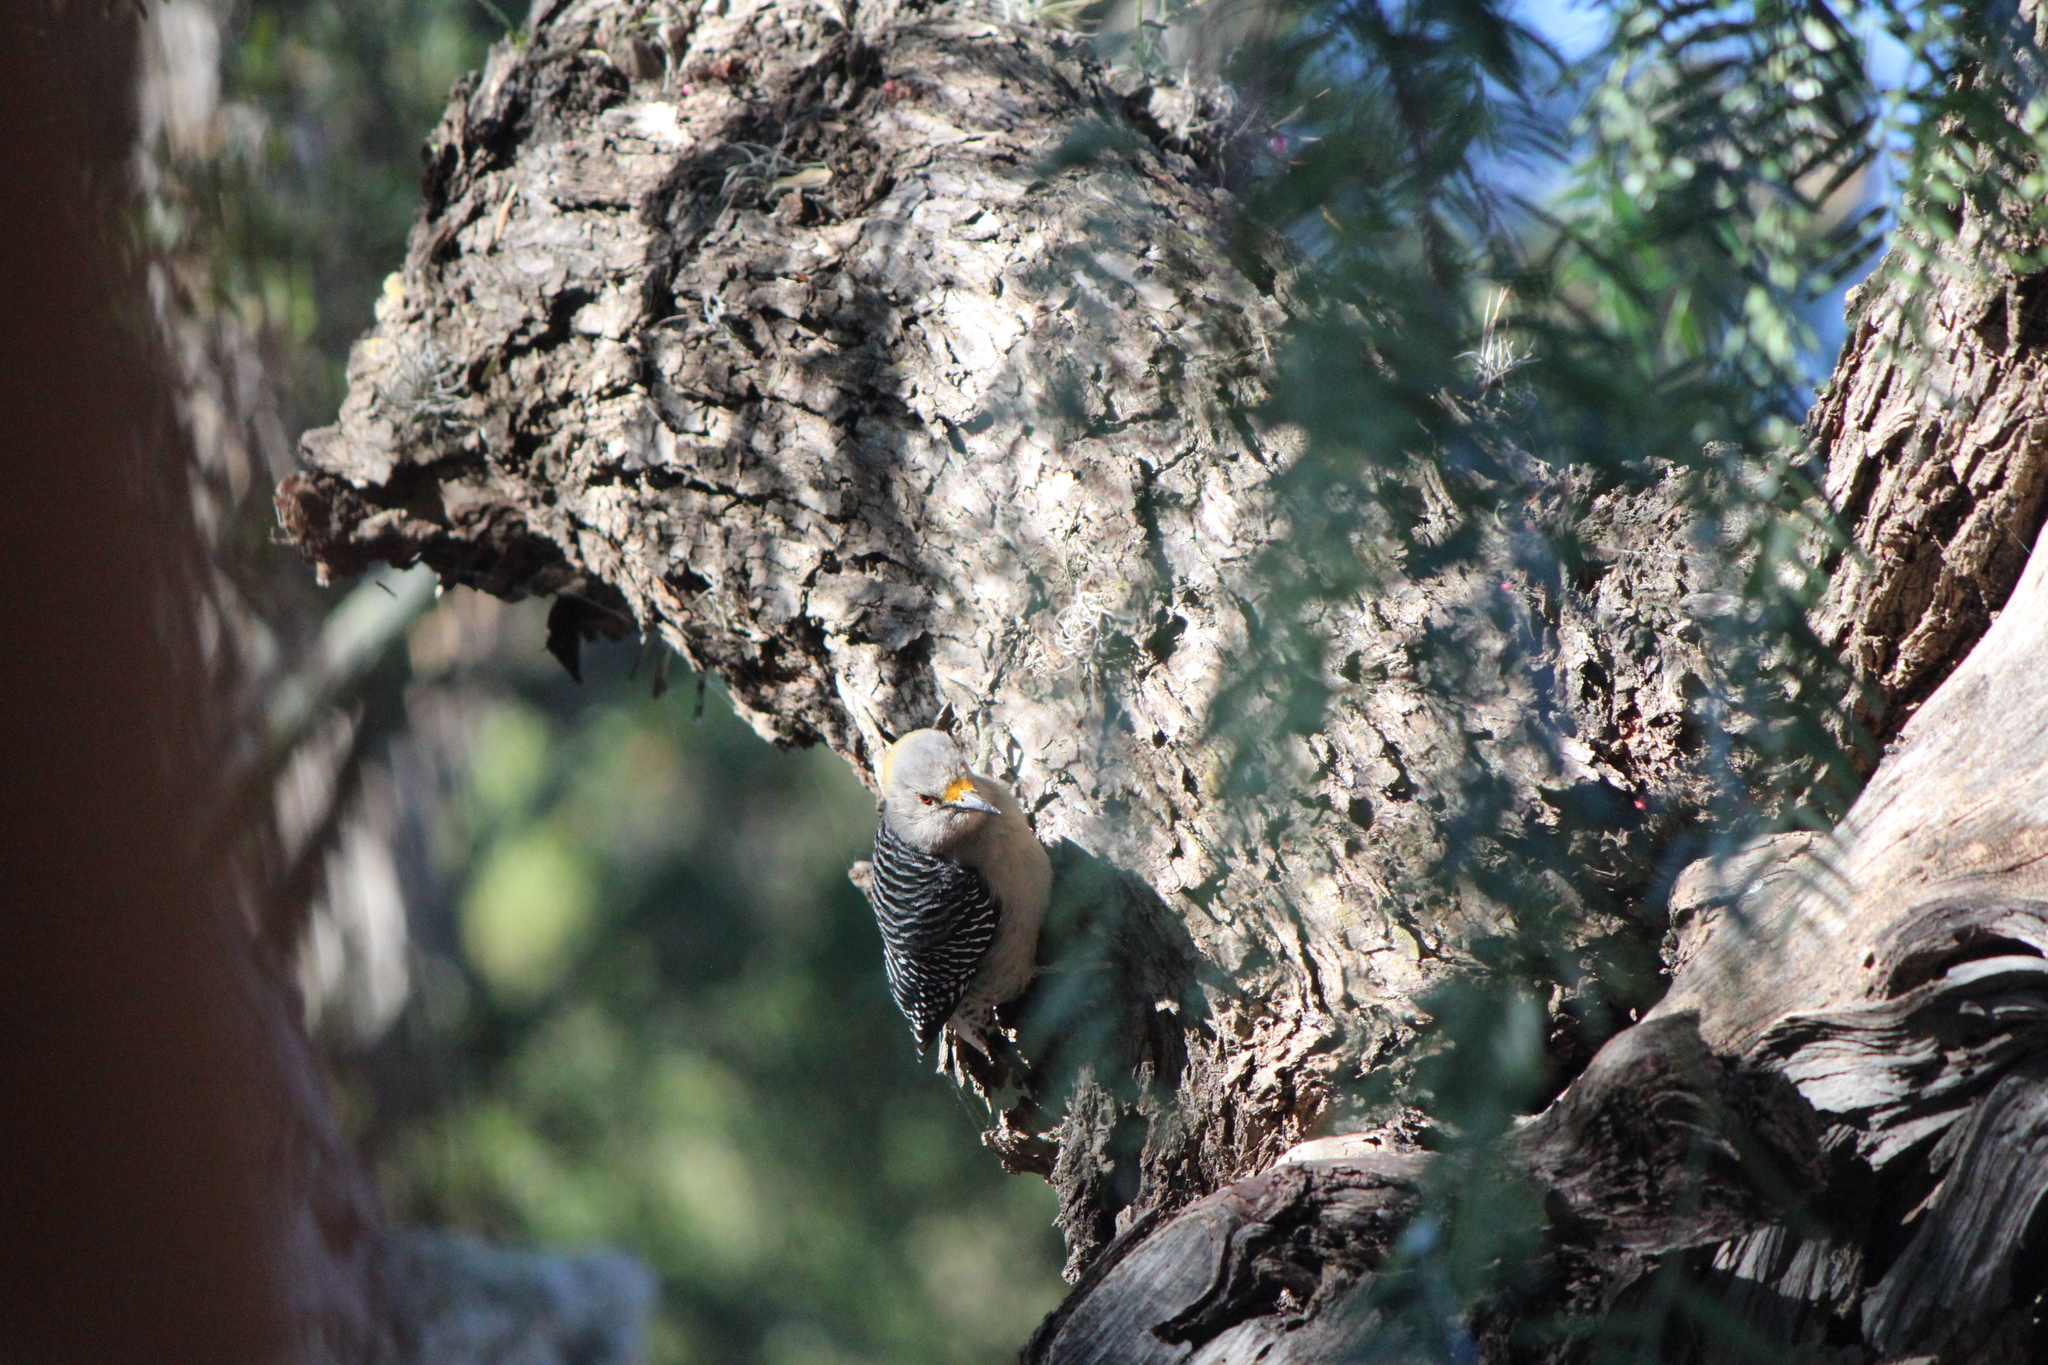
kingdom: Animalia
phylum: Chordata
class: Aves
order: Piciformes
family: Picidae
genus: Melanerpes
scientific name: Melanerpes aurifrons
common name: Golden-fronted woodpecker
